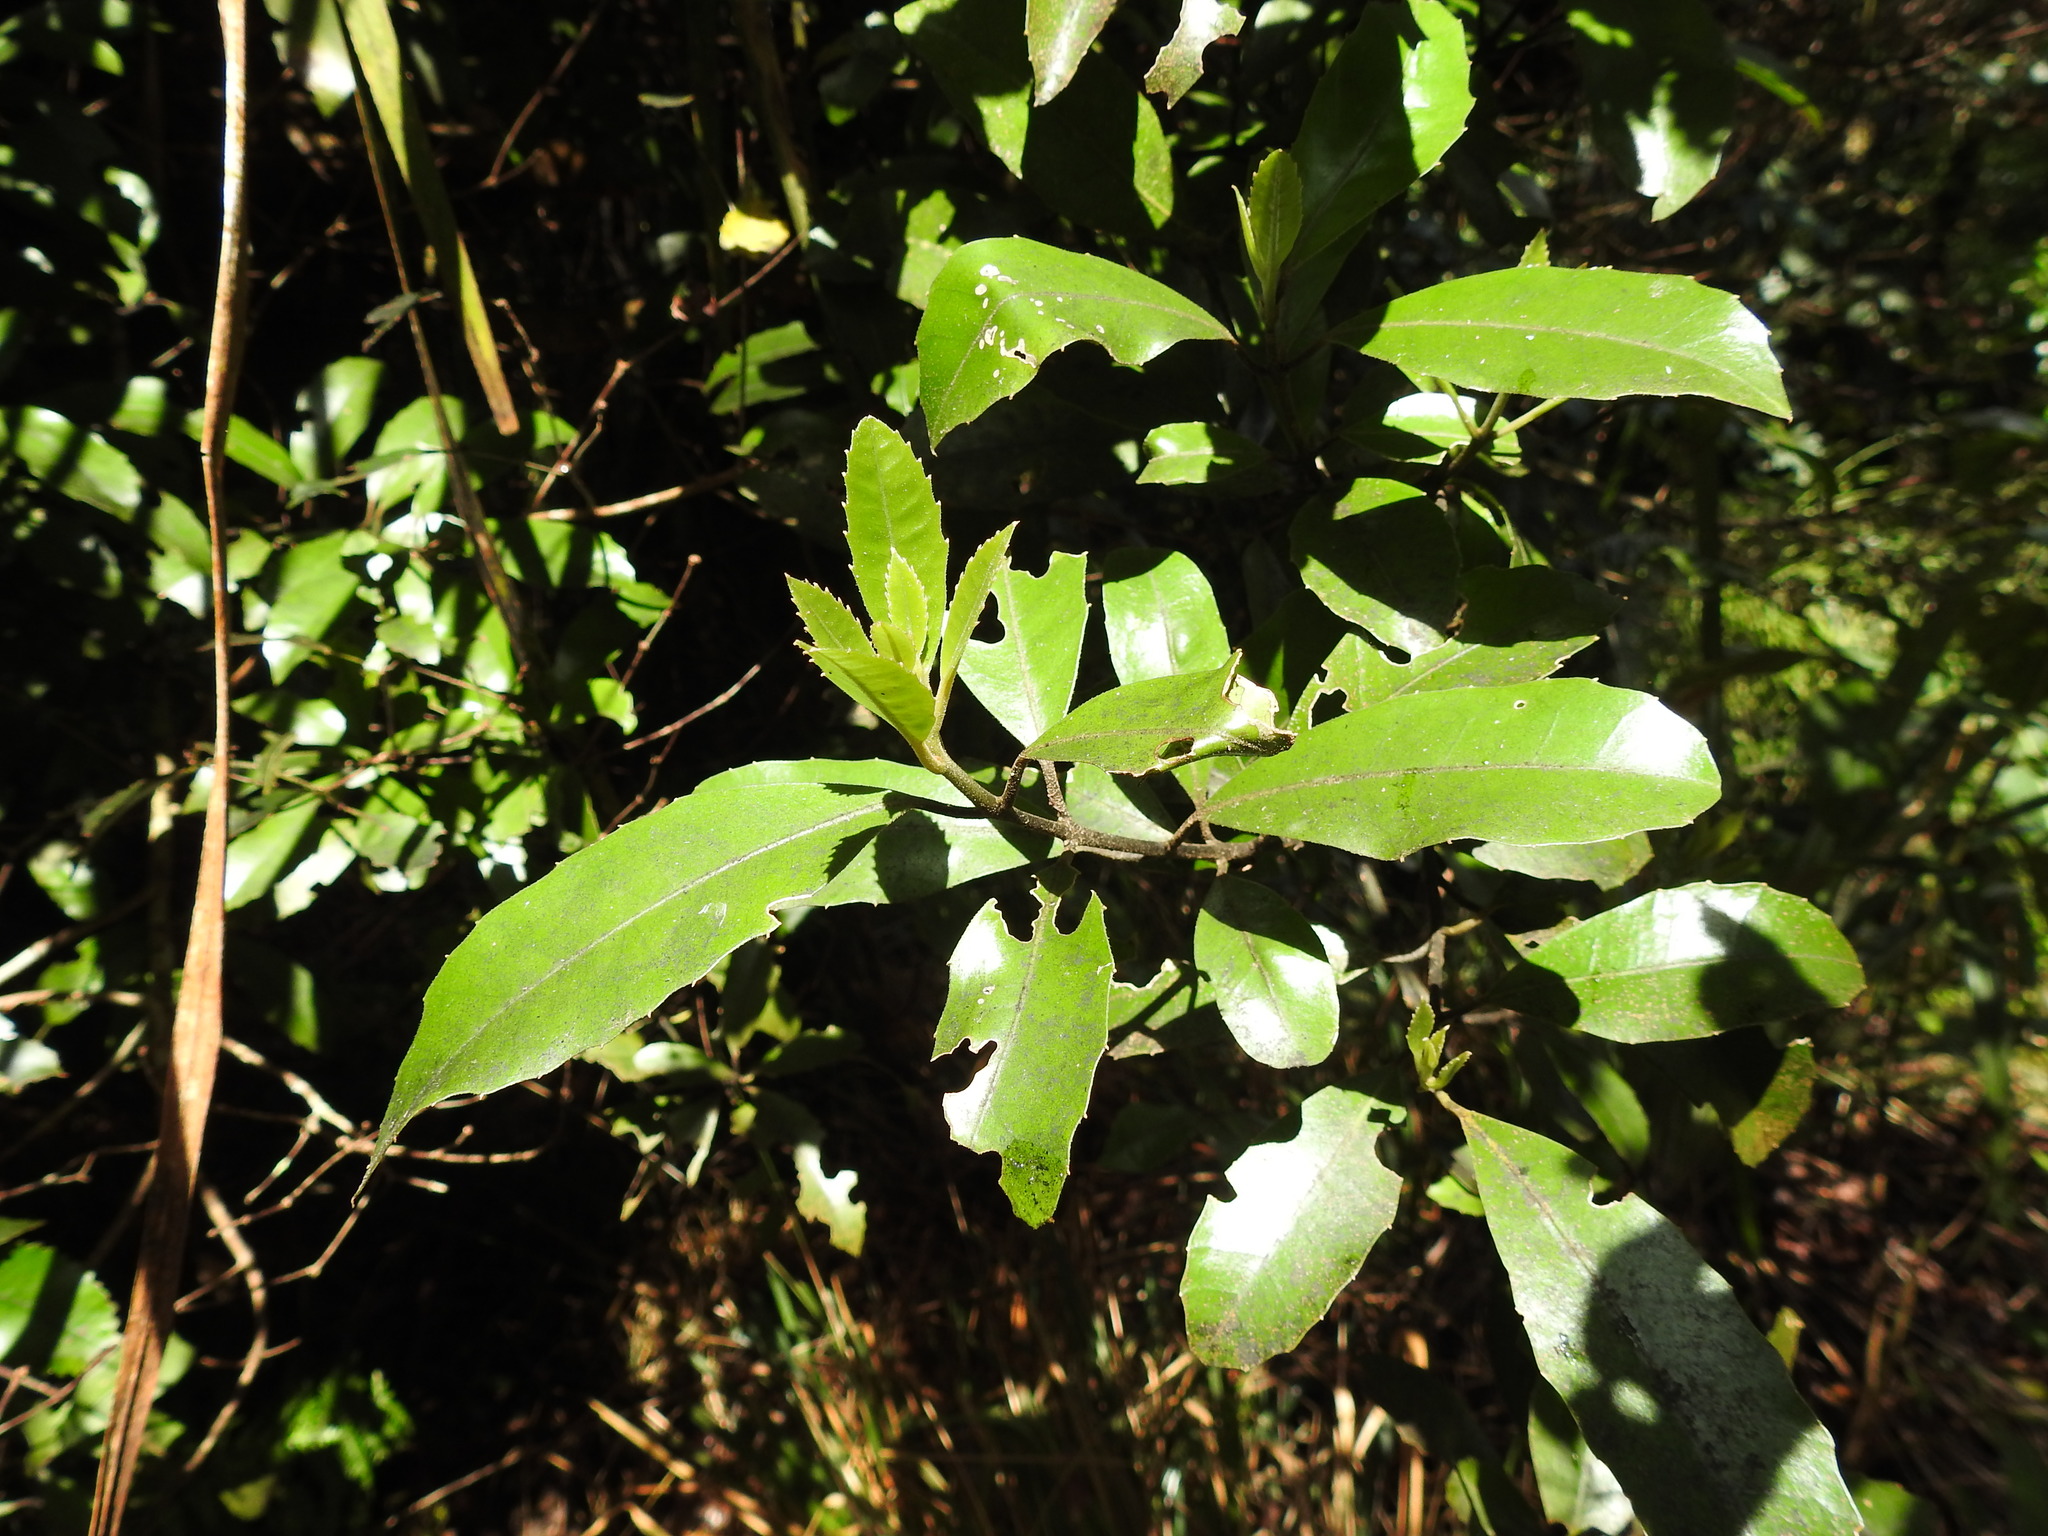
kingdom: Plantae
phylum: Tracheophyta
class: Magnoliopsida
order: Laurales
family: Monimiaceae
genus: Hedycarya
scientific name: Hedycarya arborea
